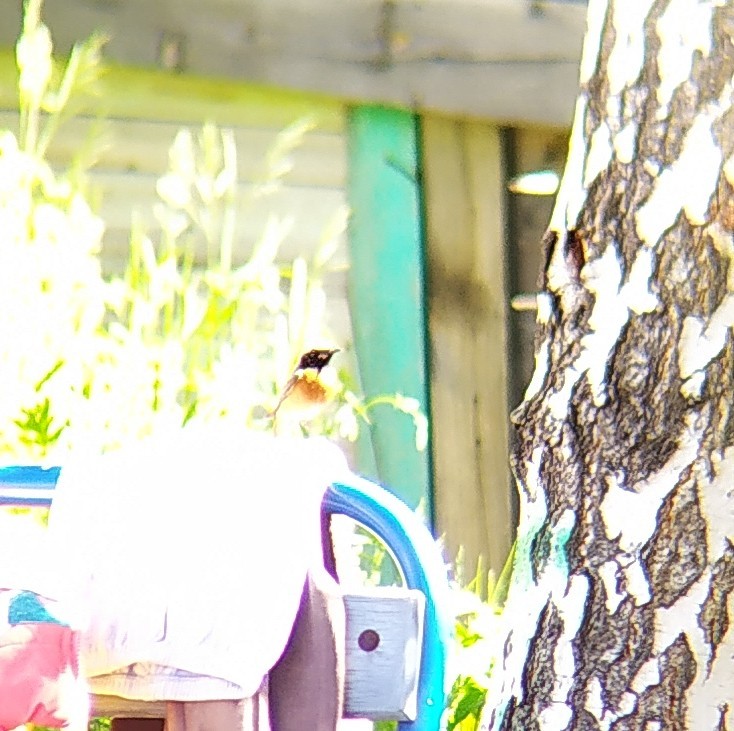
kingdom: Animalia
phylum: Chordata
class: Aves
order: Passeriformes
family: Muscicapidae
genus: Saxicola
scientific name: Saxicola maurus
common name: Siberian stonechat
